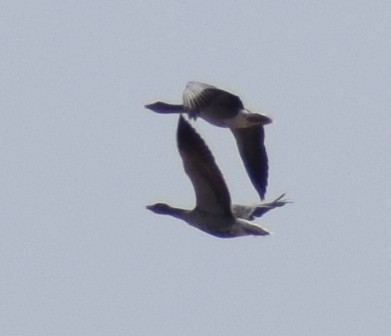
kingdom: Animalia
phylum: Chordata
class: Aves
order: Anseriformes
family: Anatidae
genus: Anser
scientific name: Anser anser
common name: Greylag goose
